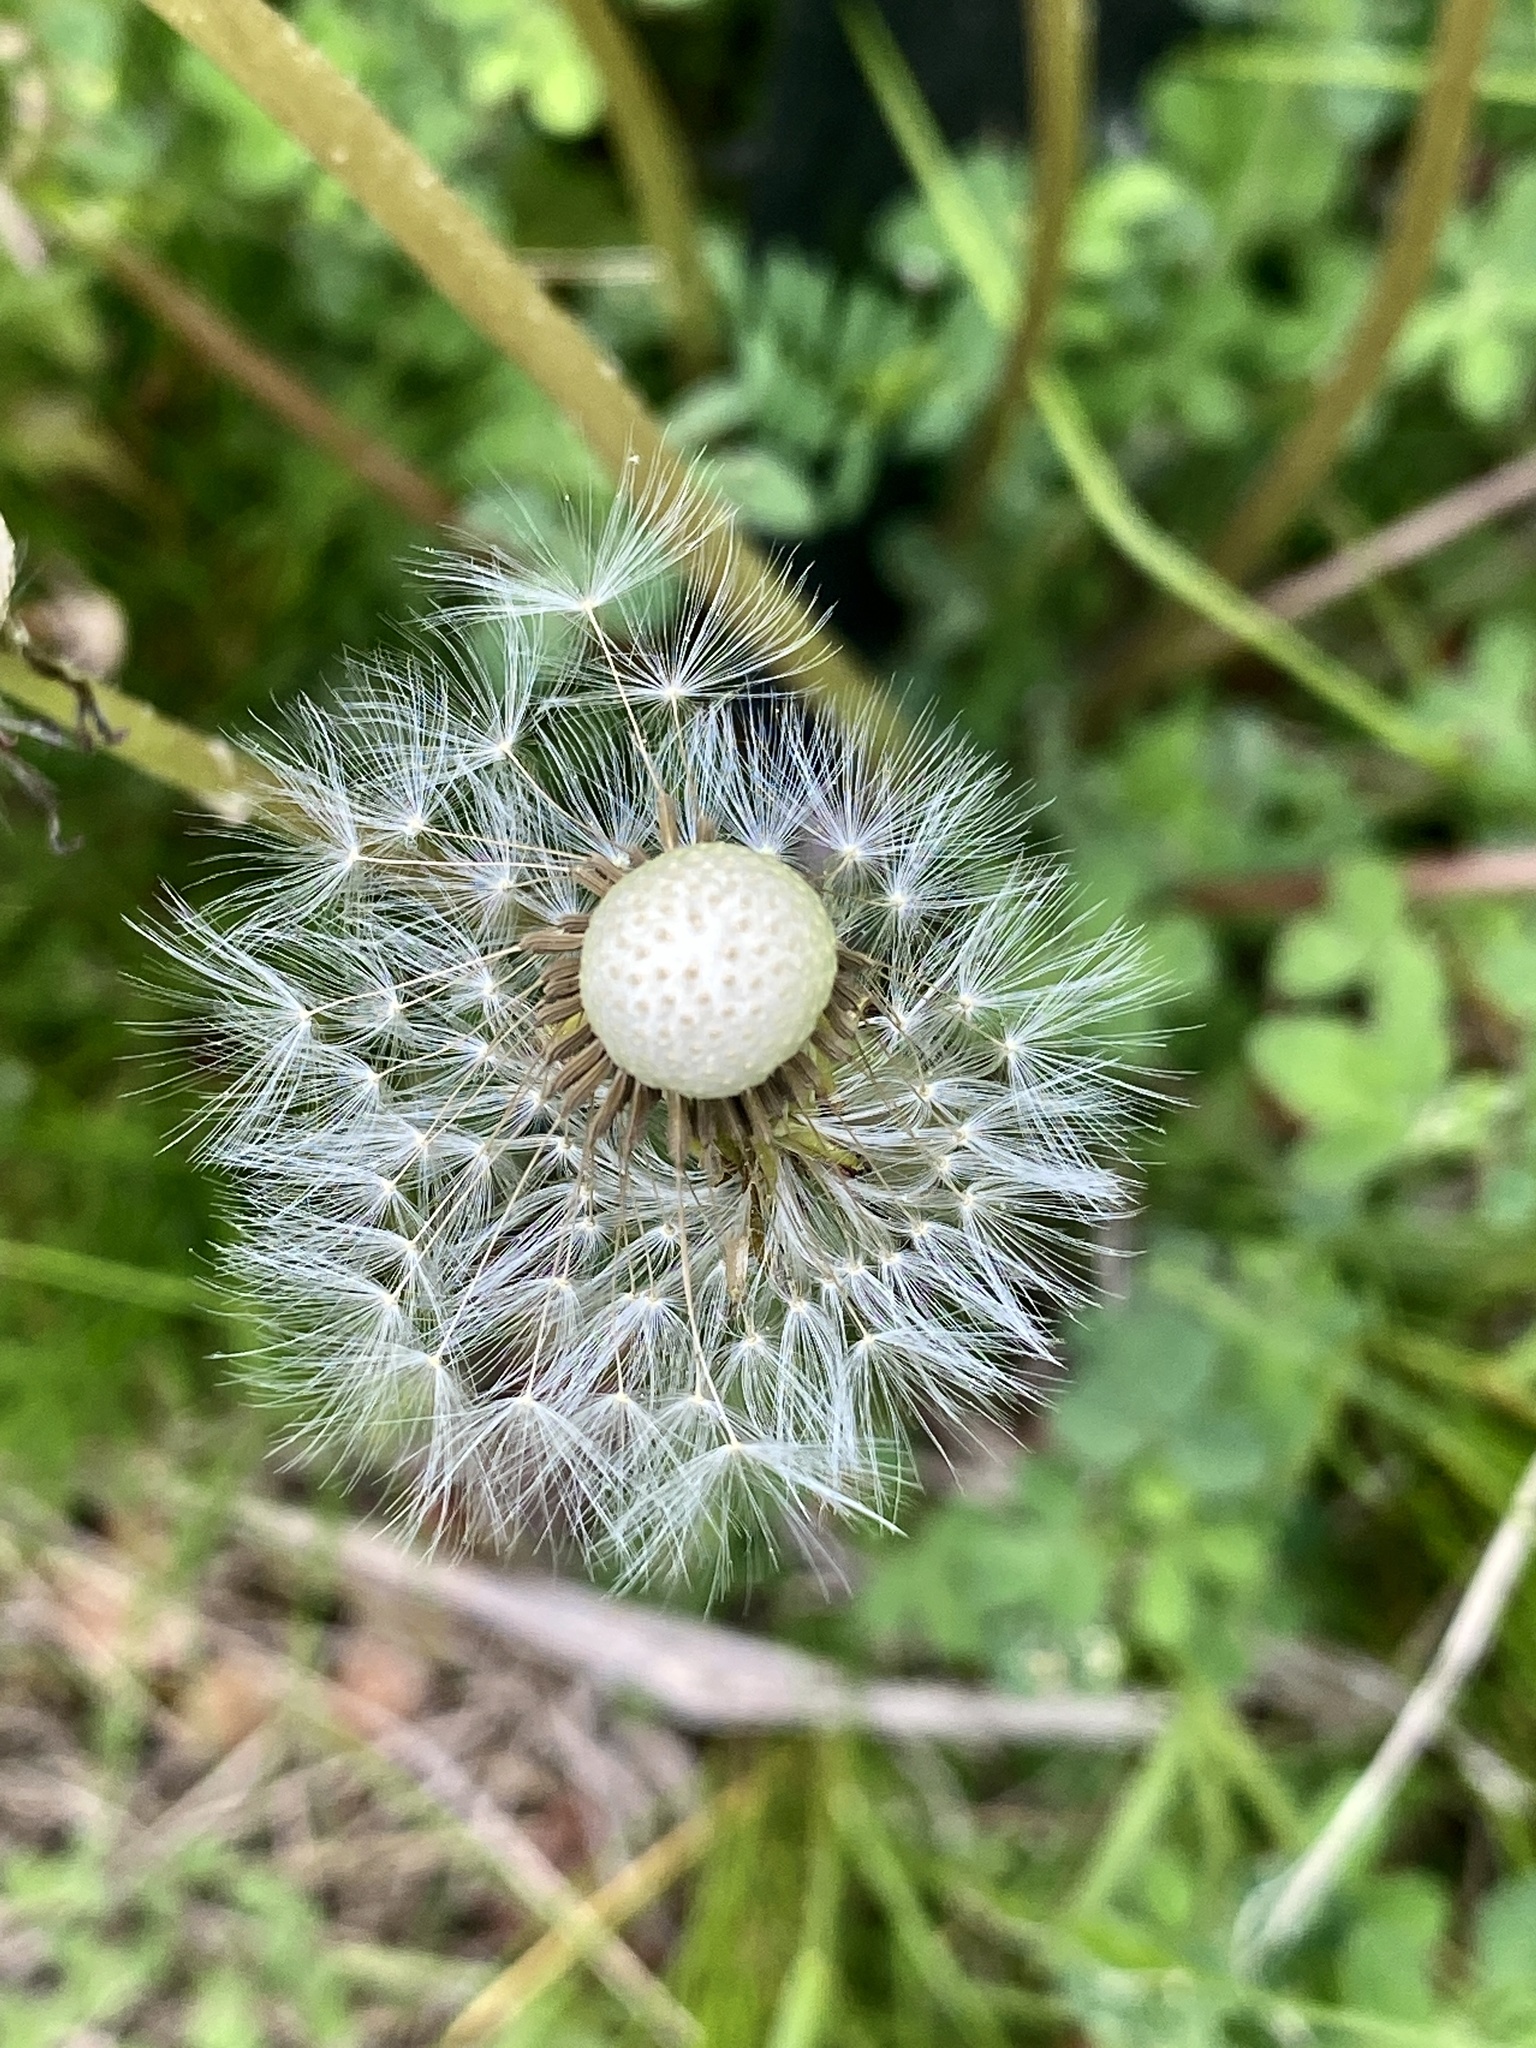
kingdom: Plantae
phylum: Tracheophyta
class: Magnoliopsida
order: Asterales
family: Asteraceae
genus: Taraxacum
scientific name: Taraxacum officinale
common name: Common dandelion
